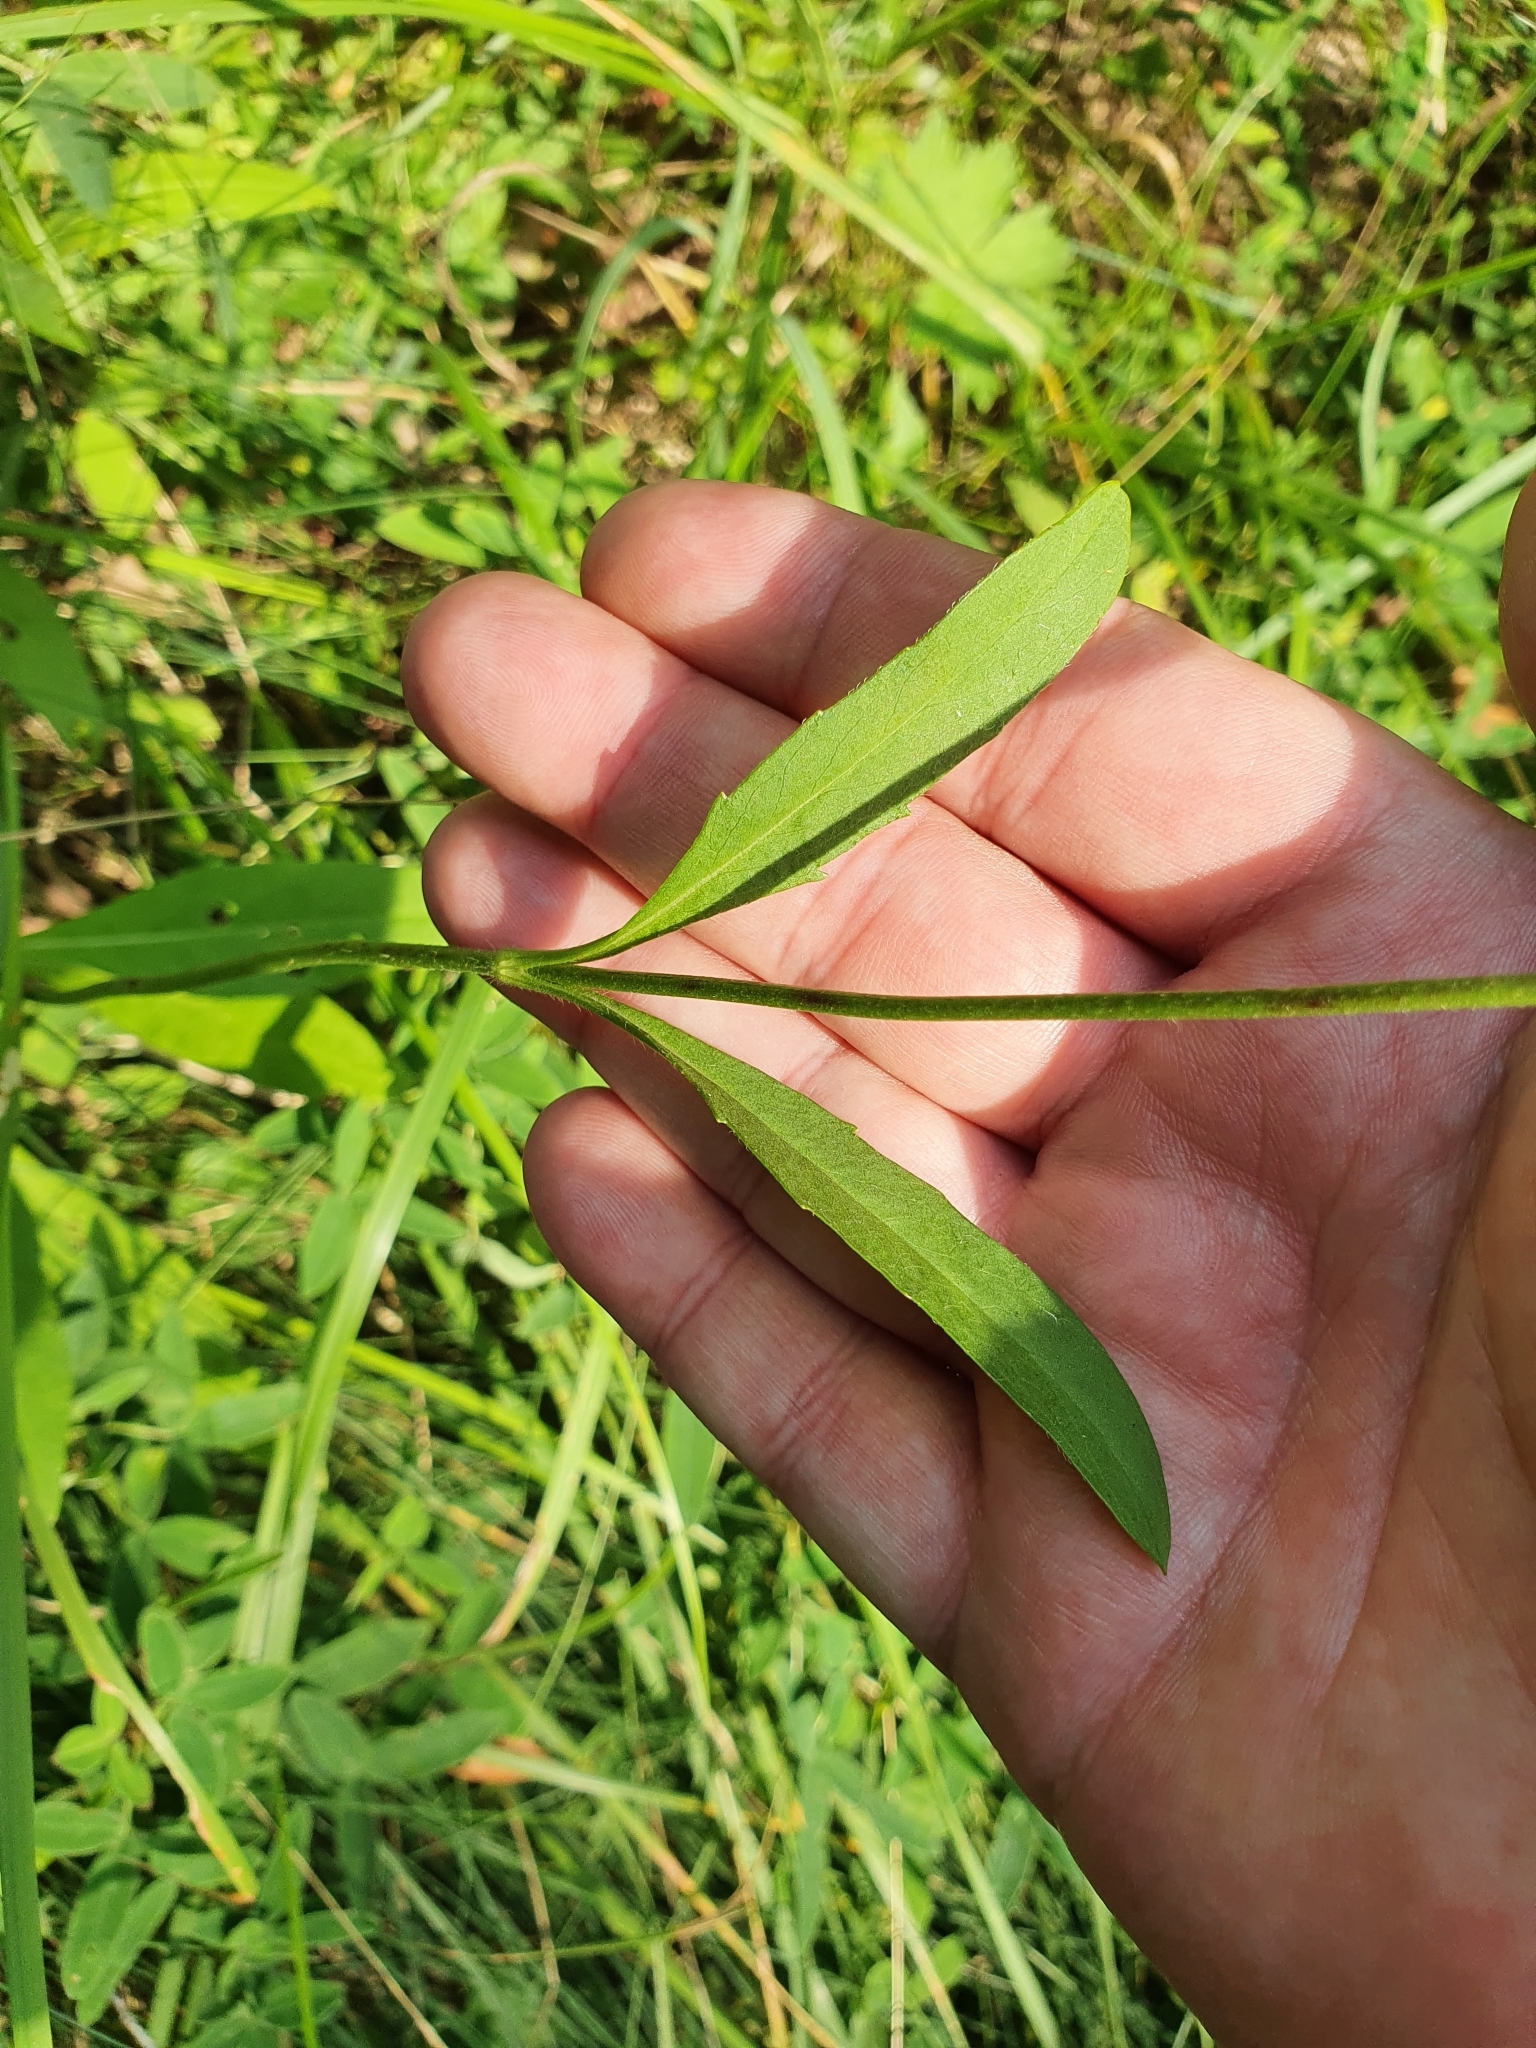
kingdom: Plantae
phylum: Tracheophyta
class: Magnoliopsida
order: Dipsacales
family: Caprifoliaceae
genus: Succisa
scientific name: Succisa pratensis
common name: Devil's-bit
